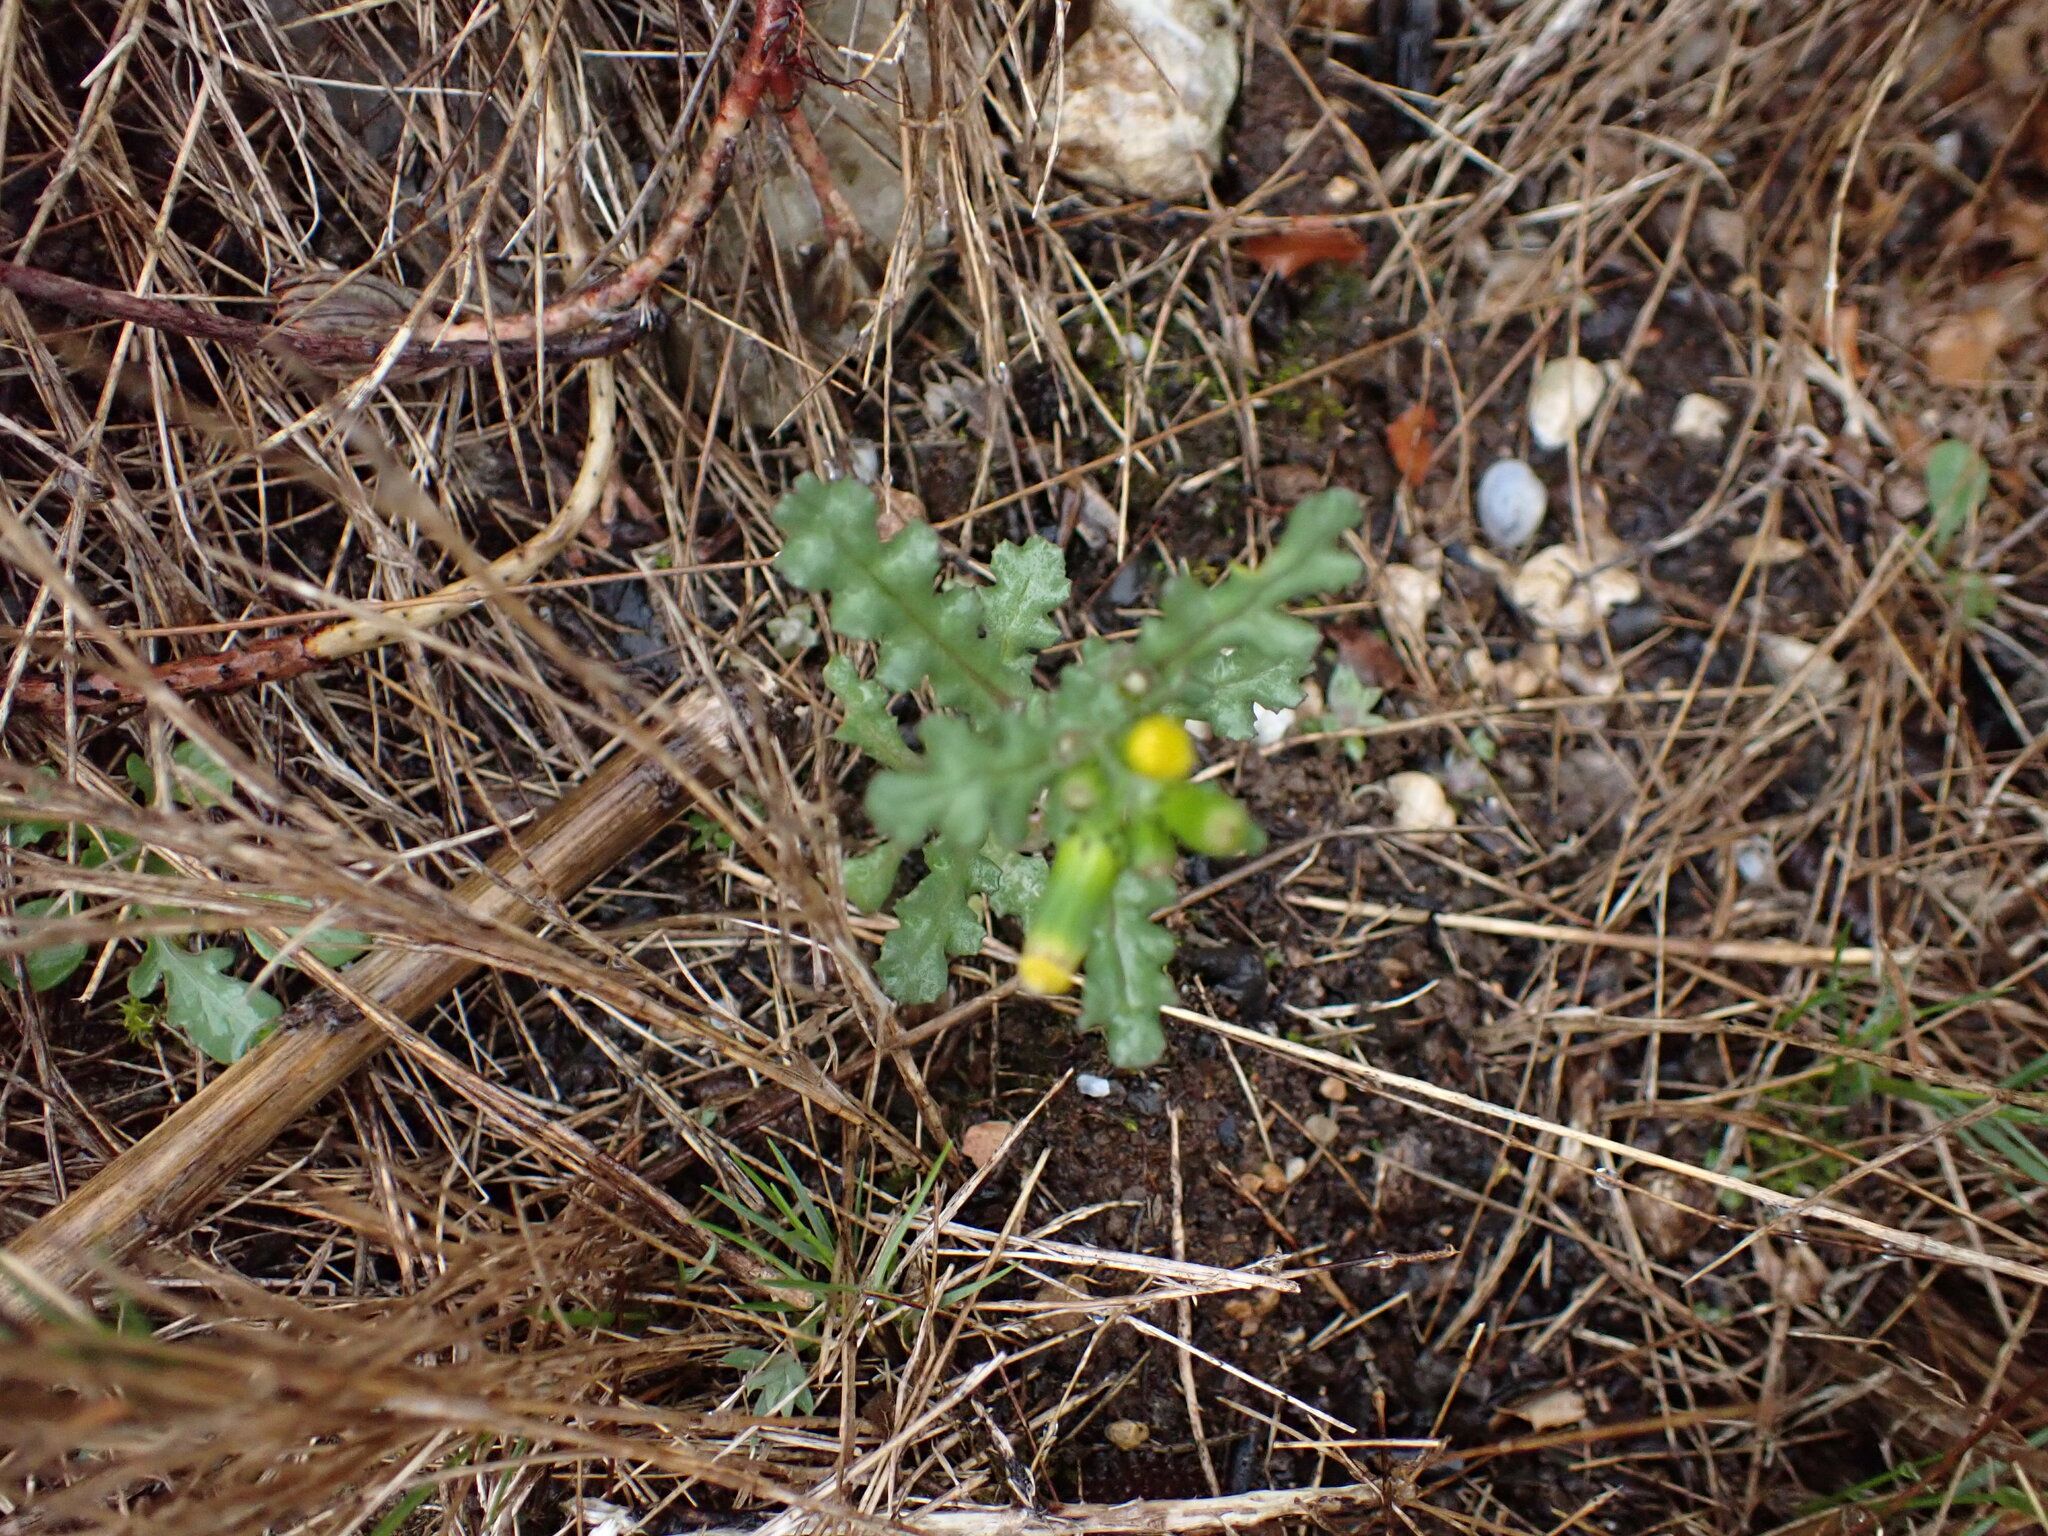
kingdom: Plantae
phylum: Tracheophyta
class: Magnoliopsida
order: Asterales
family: Asteraceae
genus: Senecio
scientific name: Senecio vulgaris
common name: Old-man-in-the-spring
